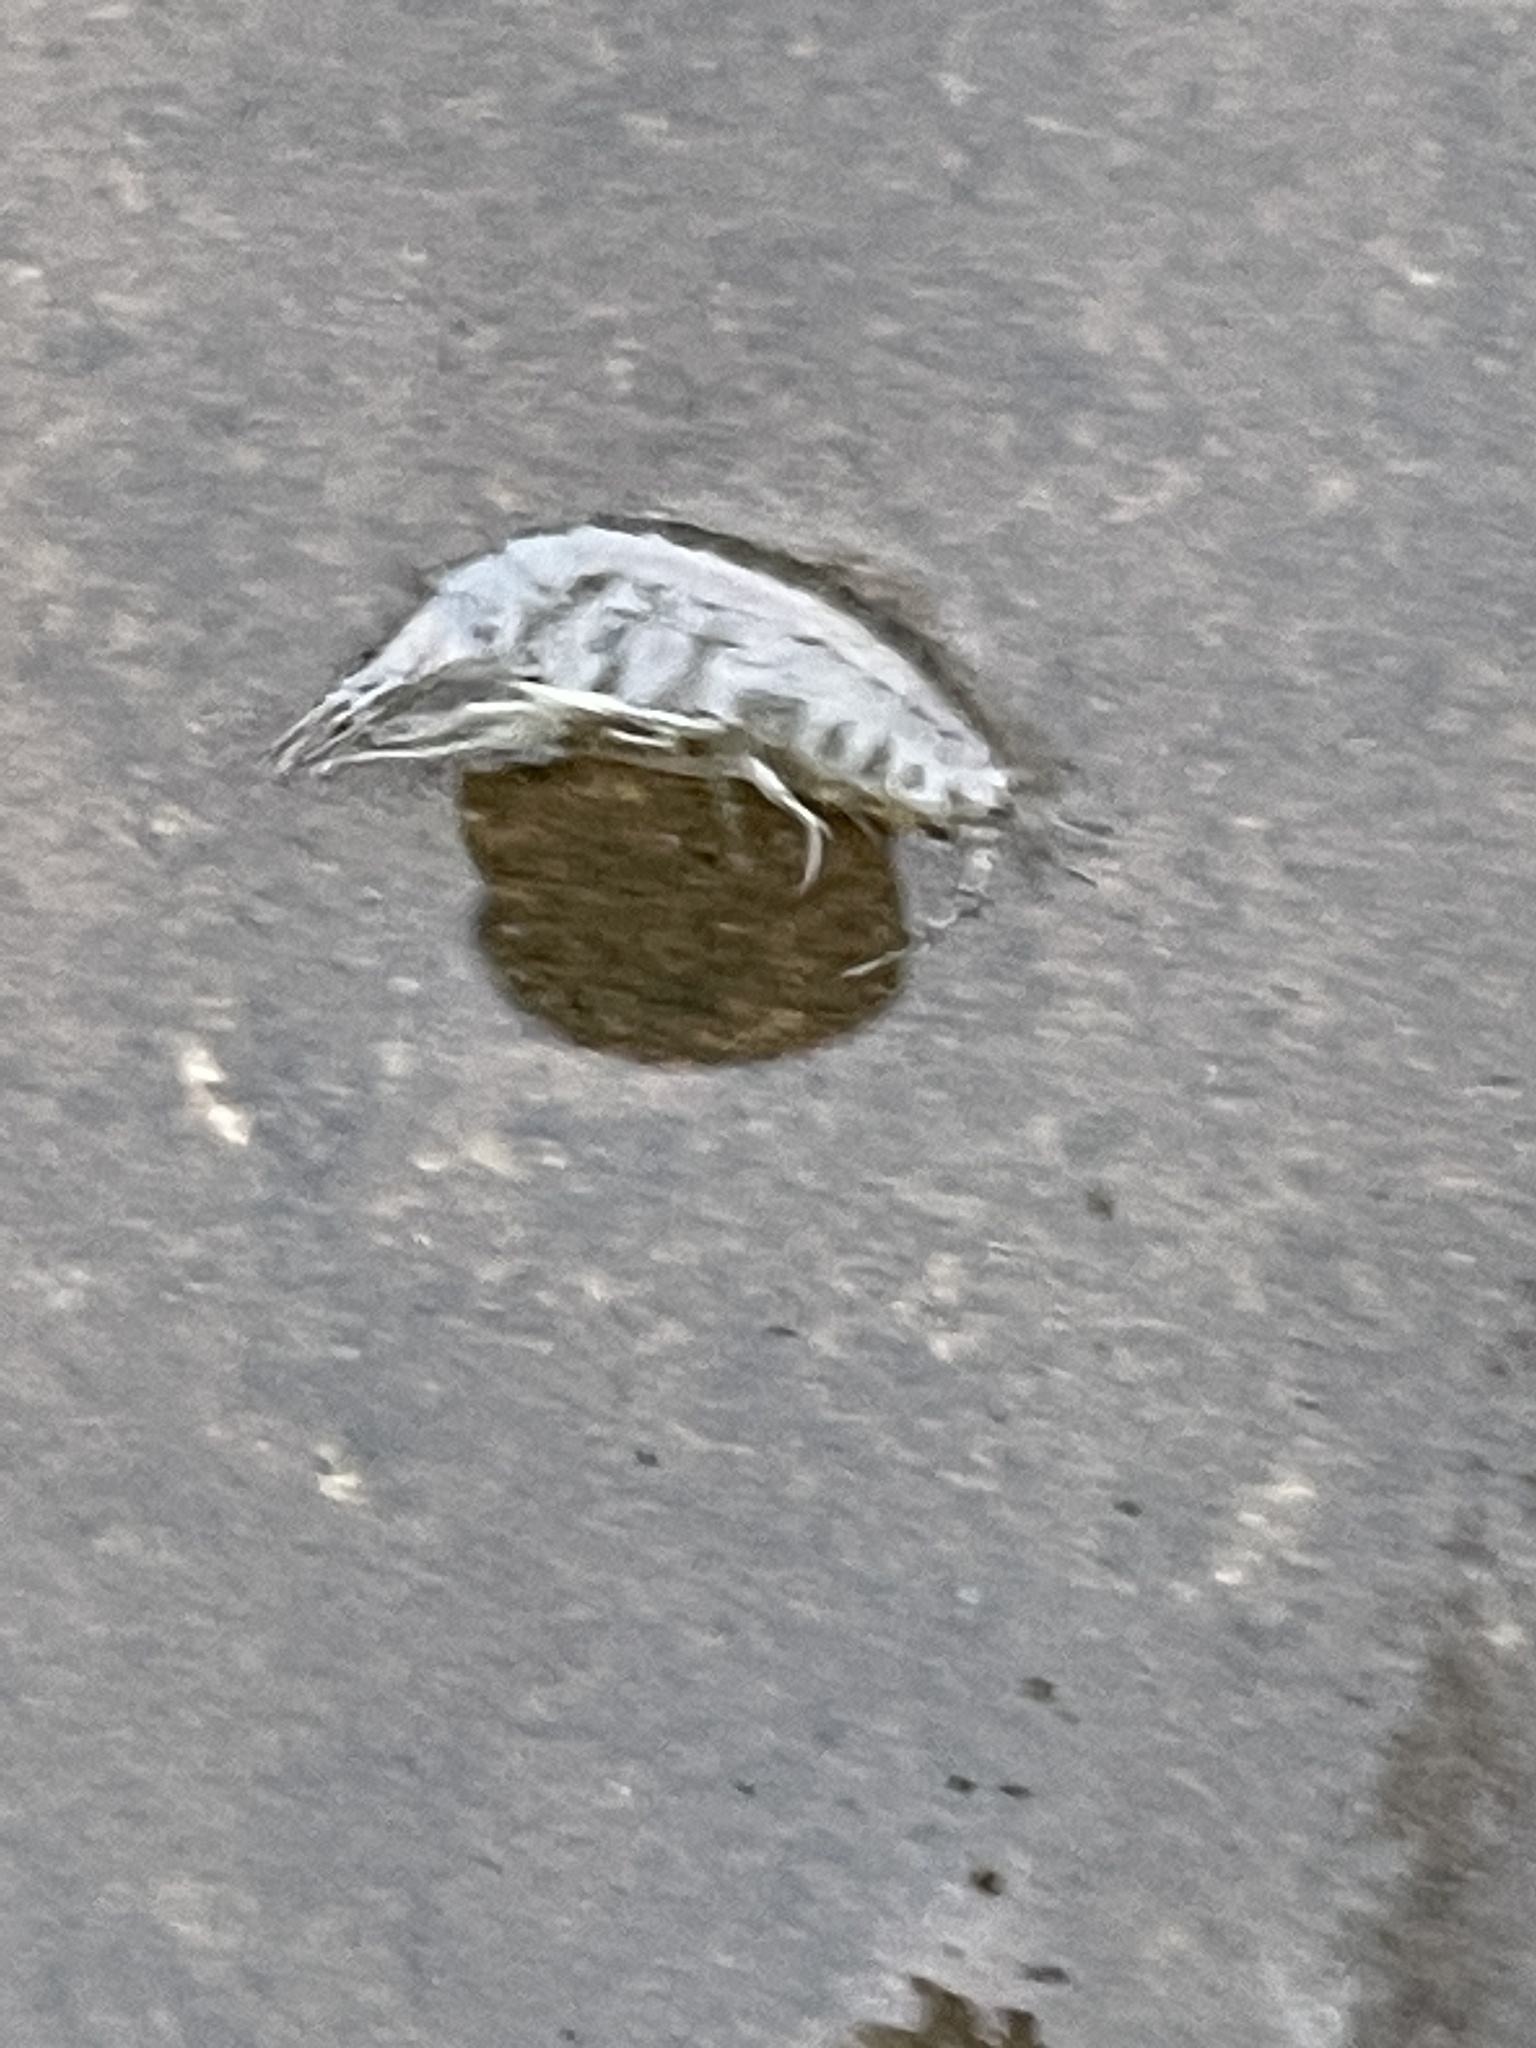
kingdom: Animalia
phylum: Arthropoda
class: Malacostraca
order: Amphipoda
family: Gammaridae
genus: Gammarus
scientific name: Gammarus
